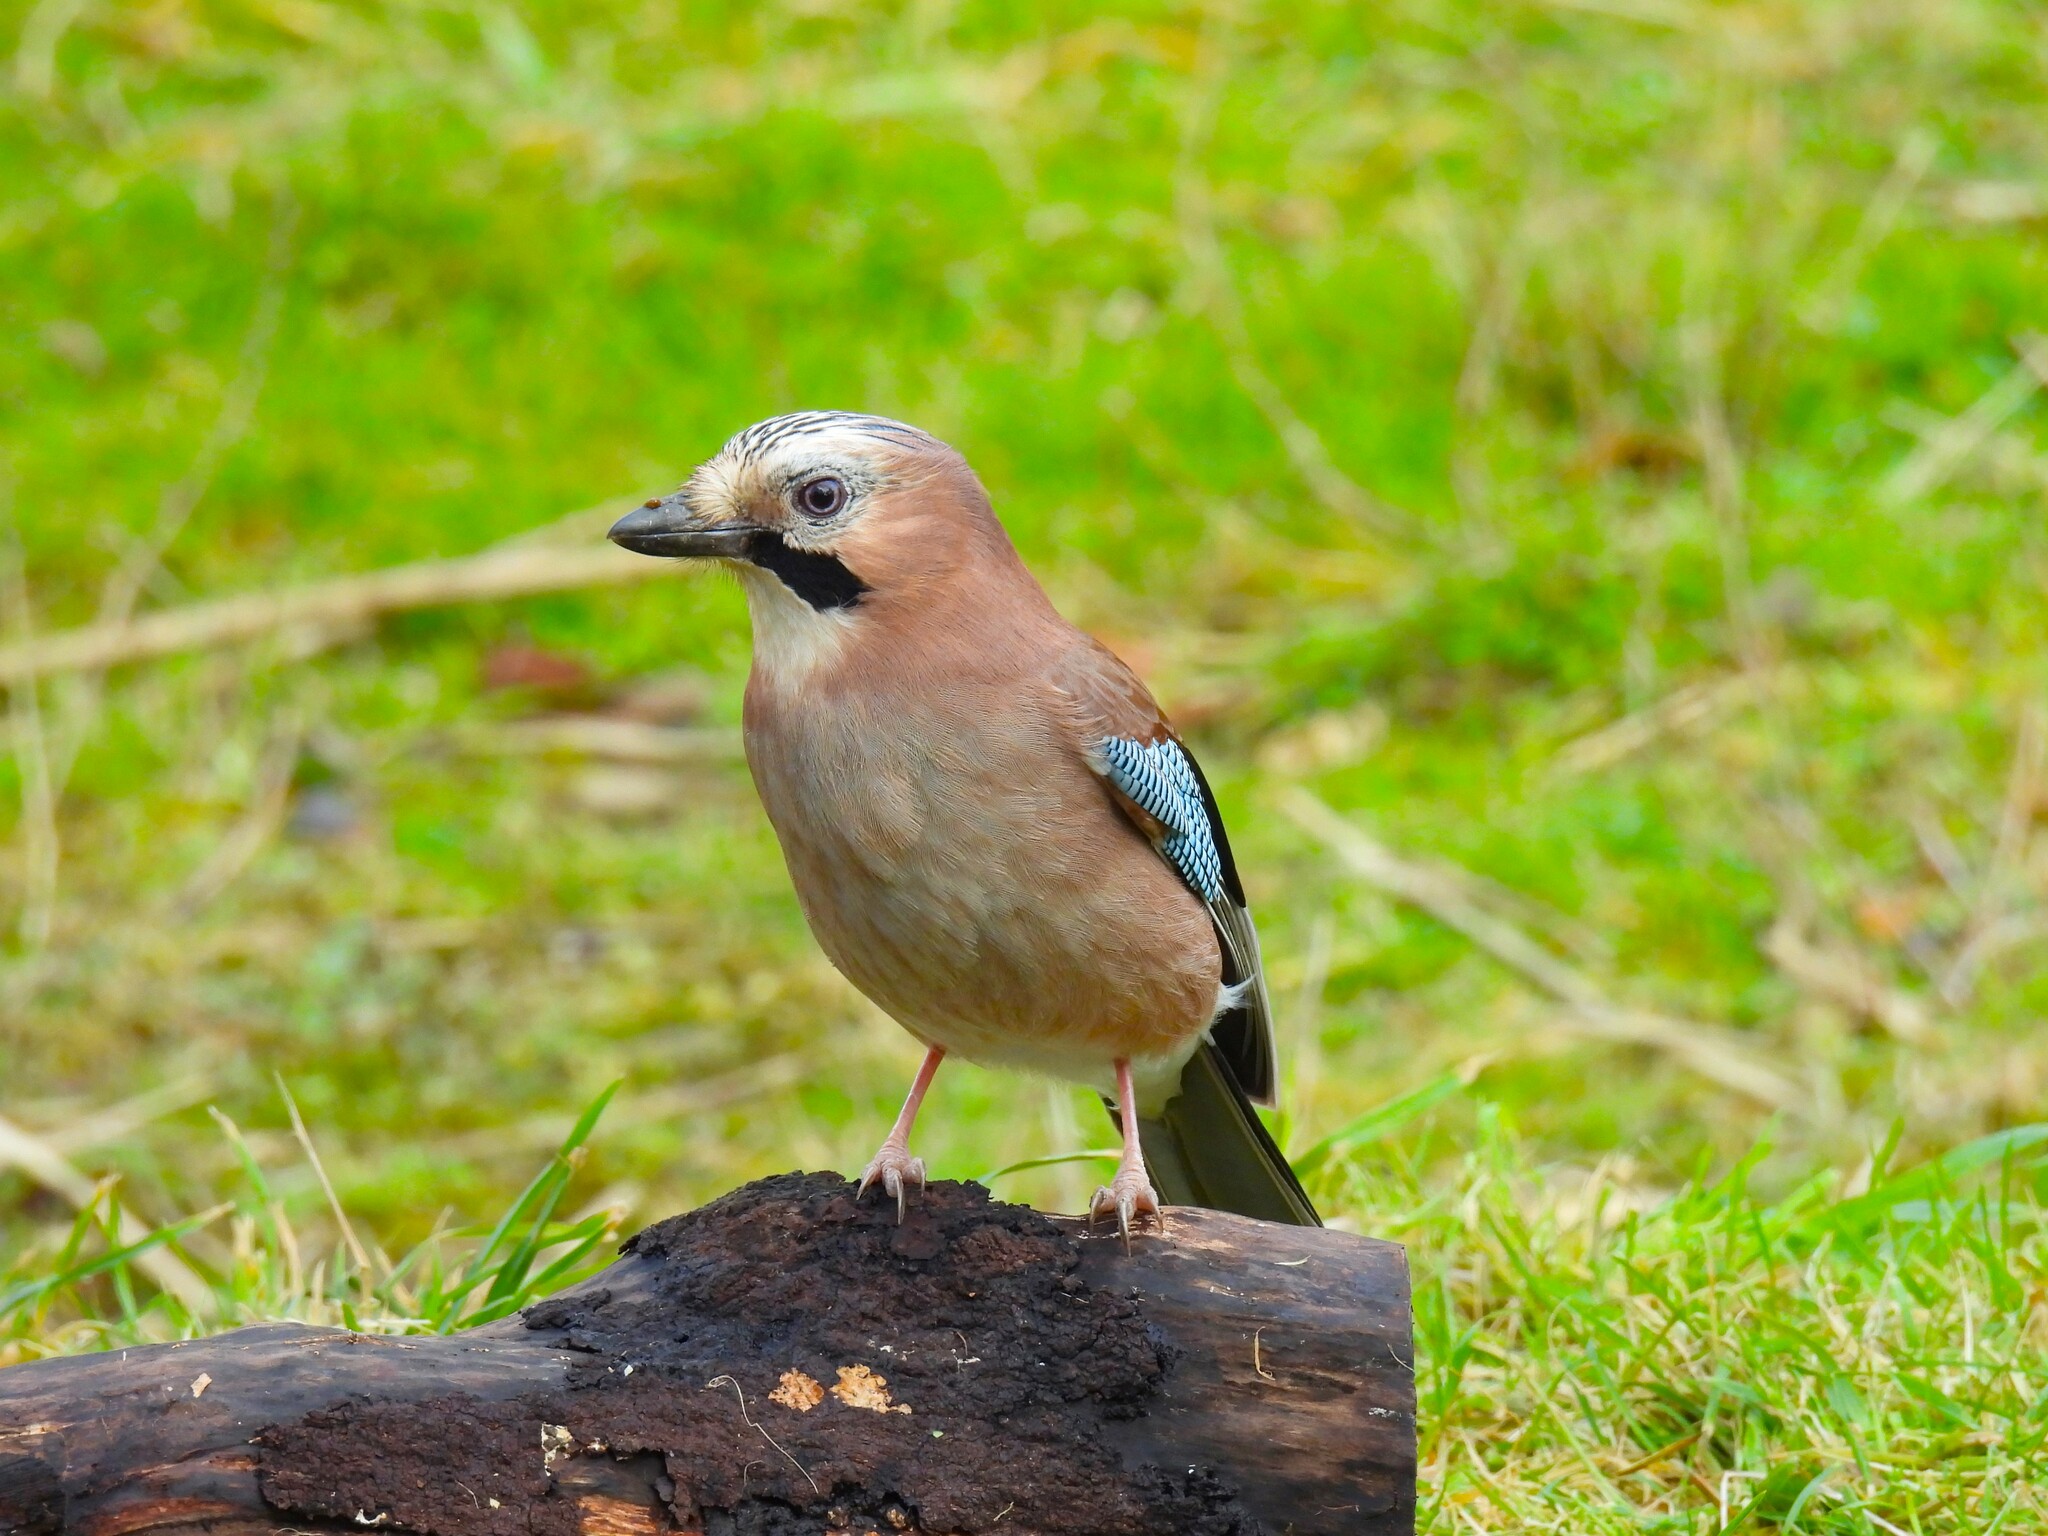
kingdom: Animalia
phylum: Chordata
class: Aves
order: Passeriformes
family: Corvidae
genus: Garrulus
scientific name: Garrulus glandarius
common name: Eurasian jay
